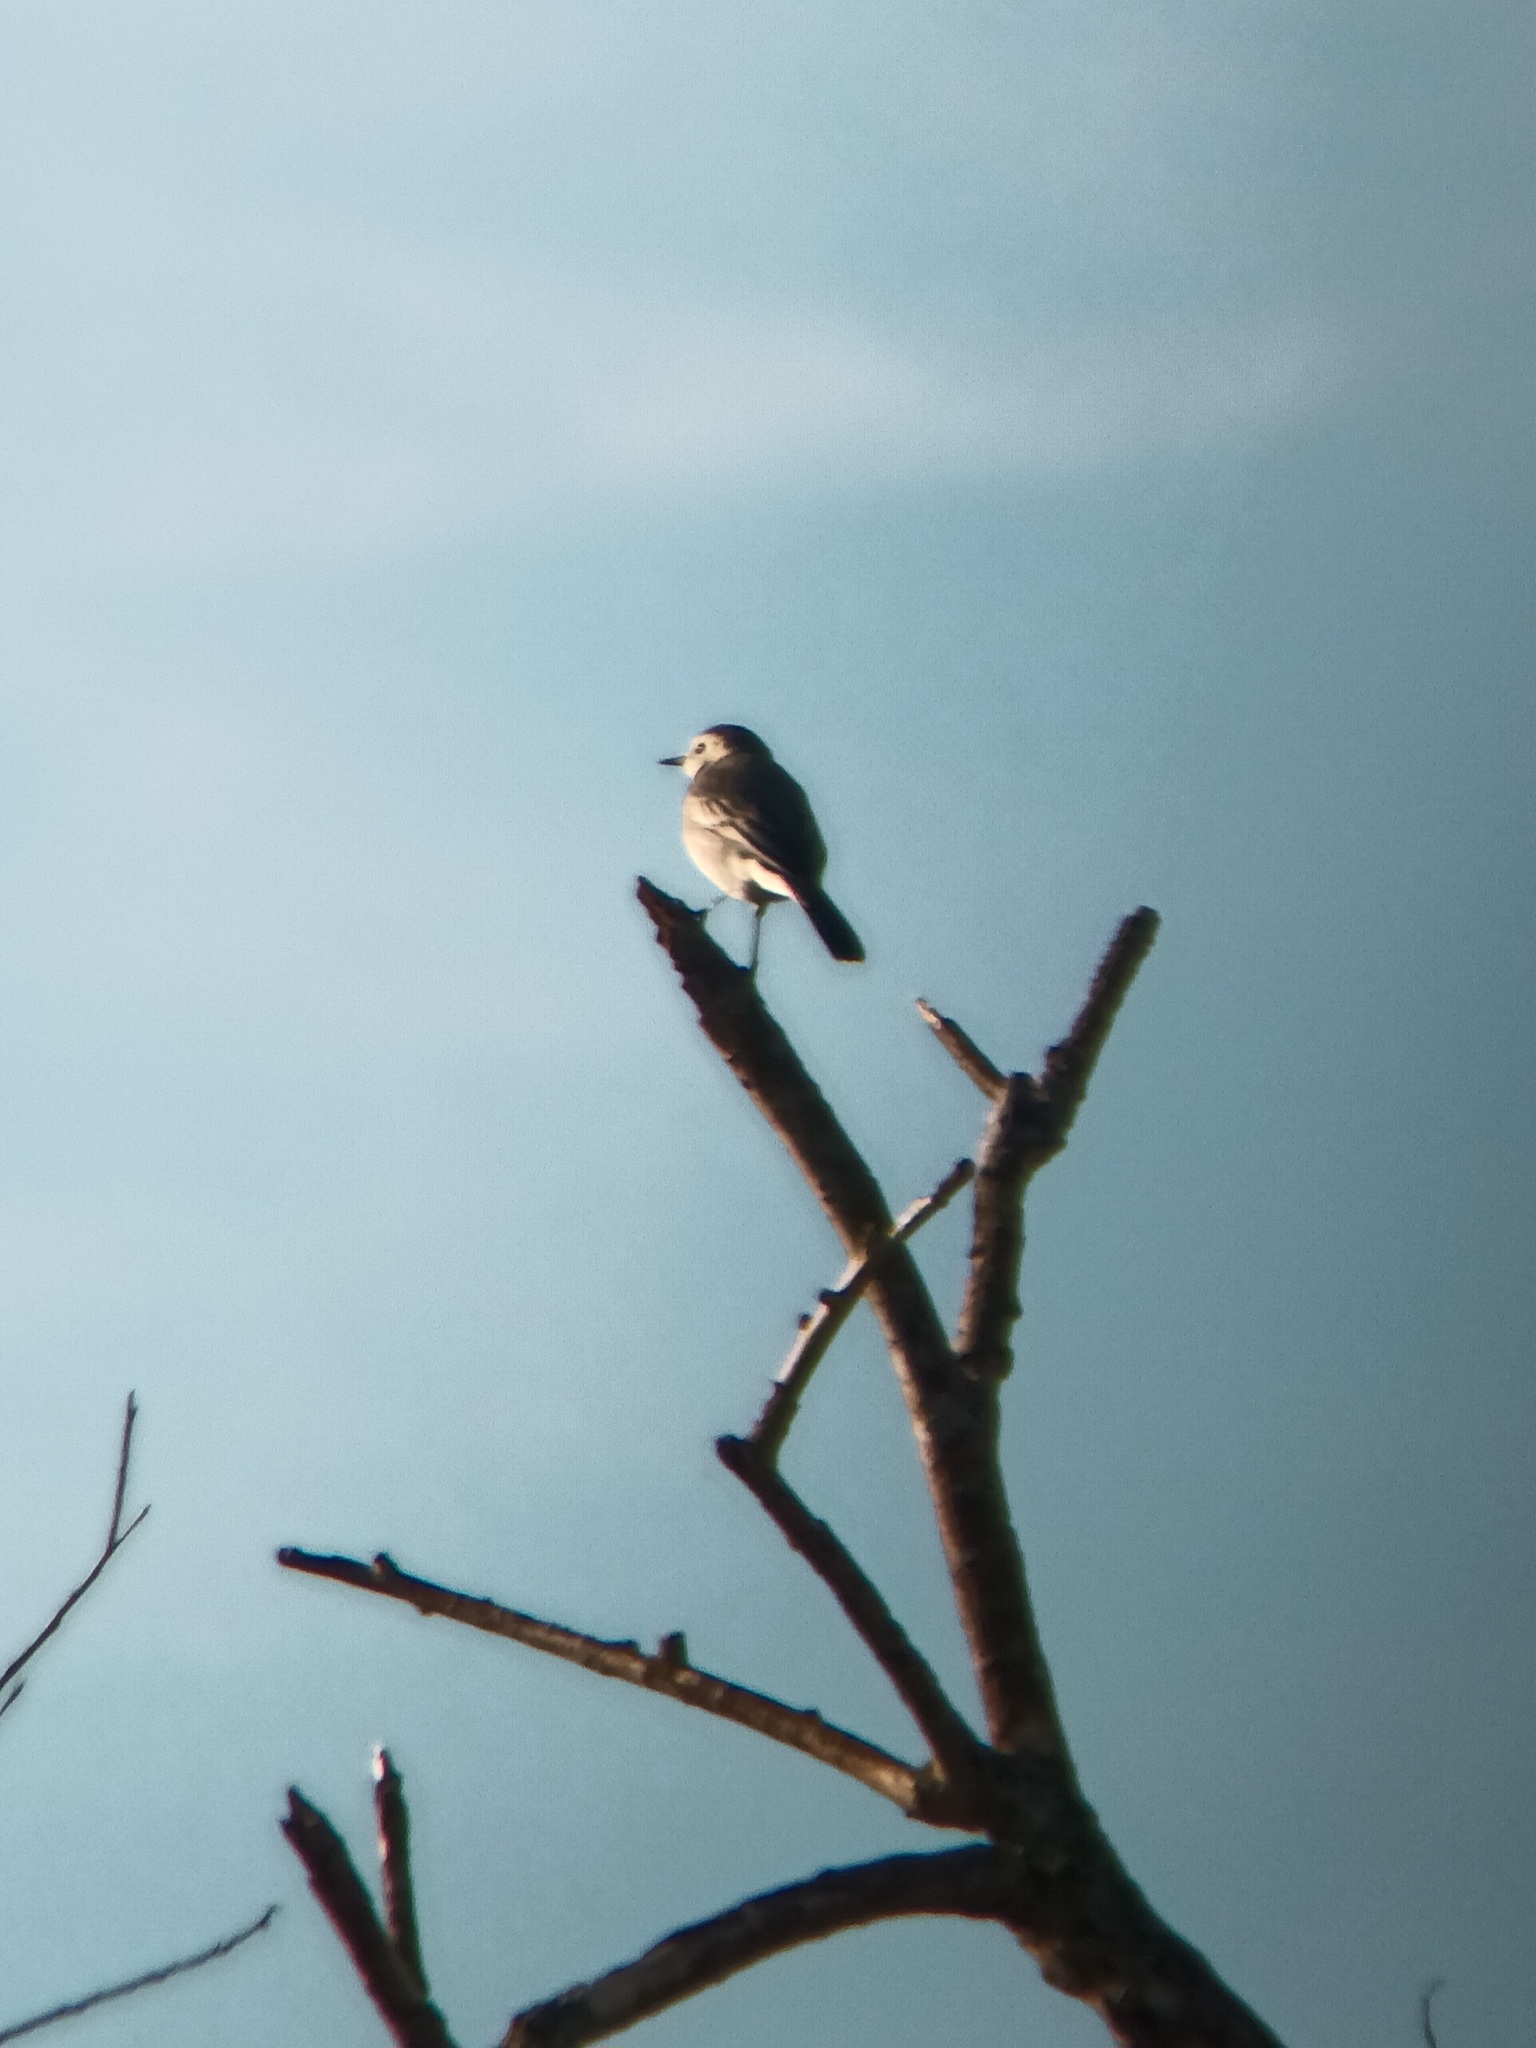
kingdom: Animalia
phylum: Chordata
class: Aves
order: Passeriformes
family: Motacillidae
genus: Motacilla
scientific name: Motacilla alba
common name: White wagtail
